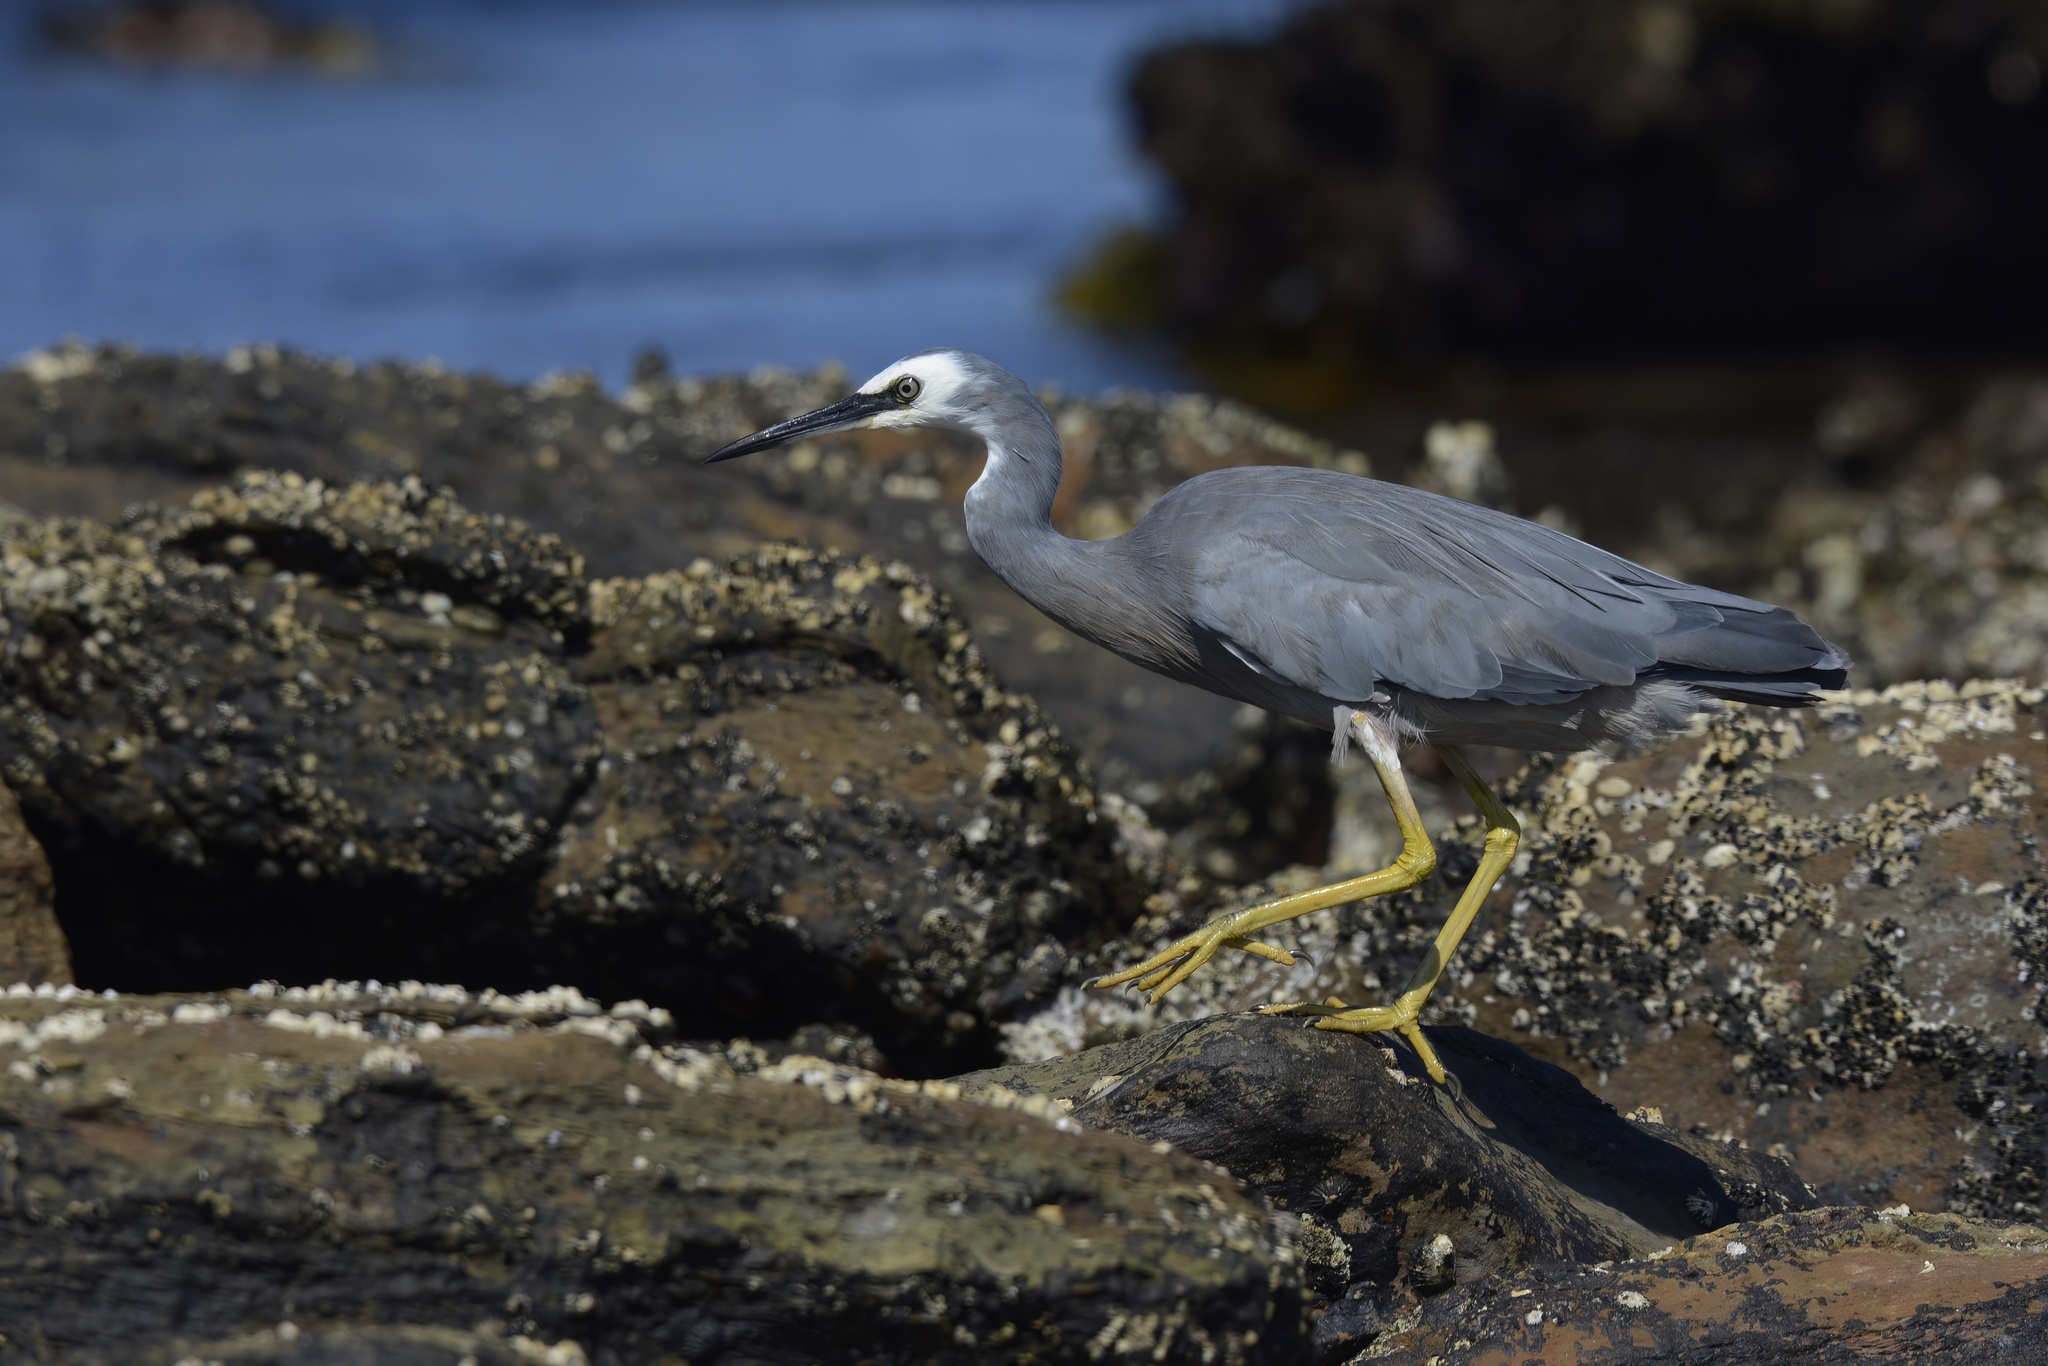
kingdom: Animalia
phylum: Chordata
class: Aves
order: Pelecaniformes
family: Ardeidae
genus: Egretta
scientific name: Egretta novaehollandiae
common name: White-faced heron
